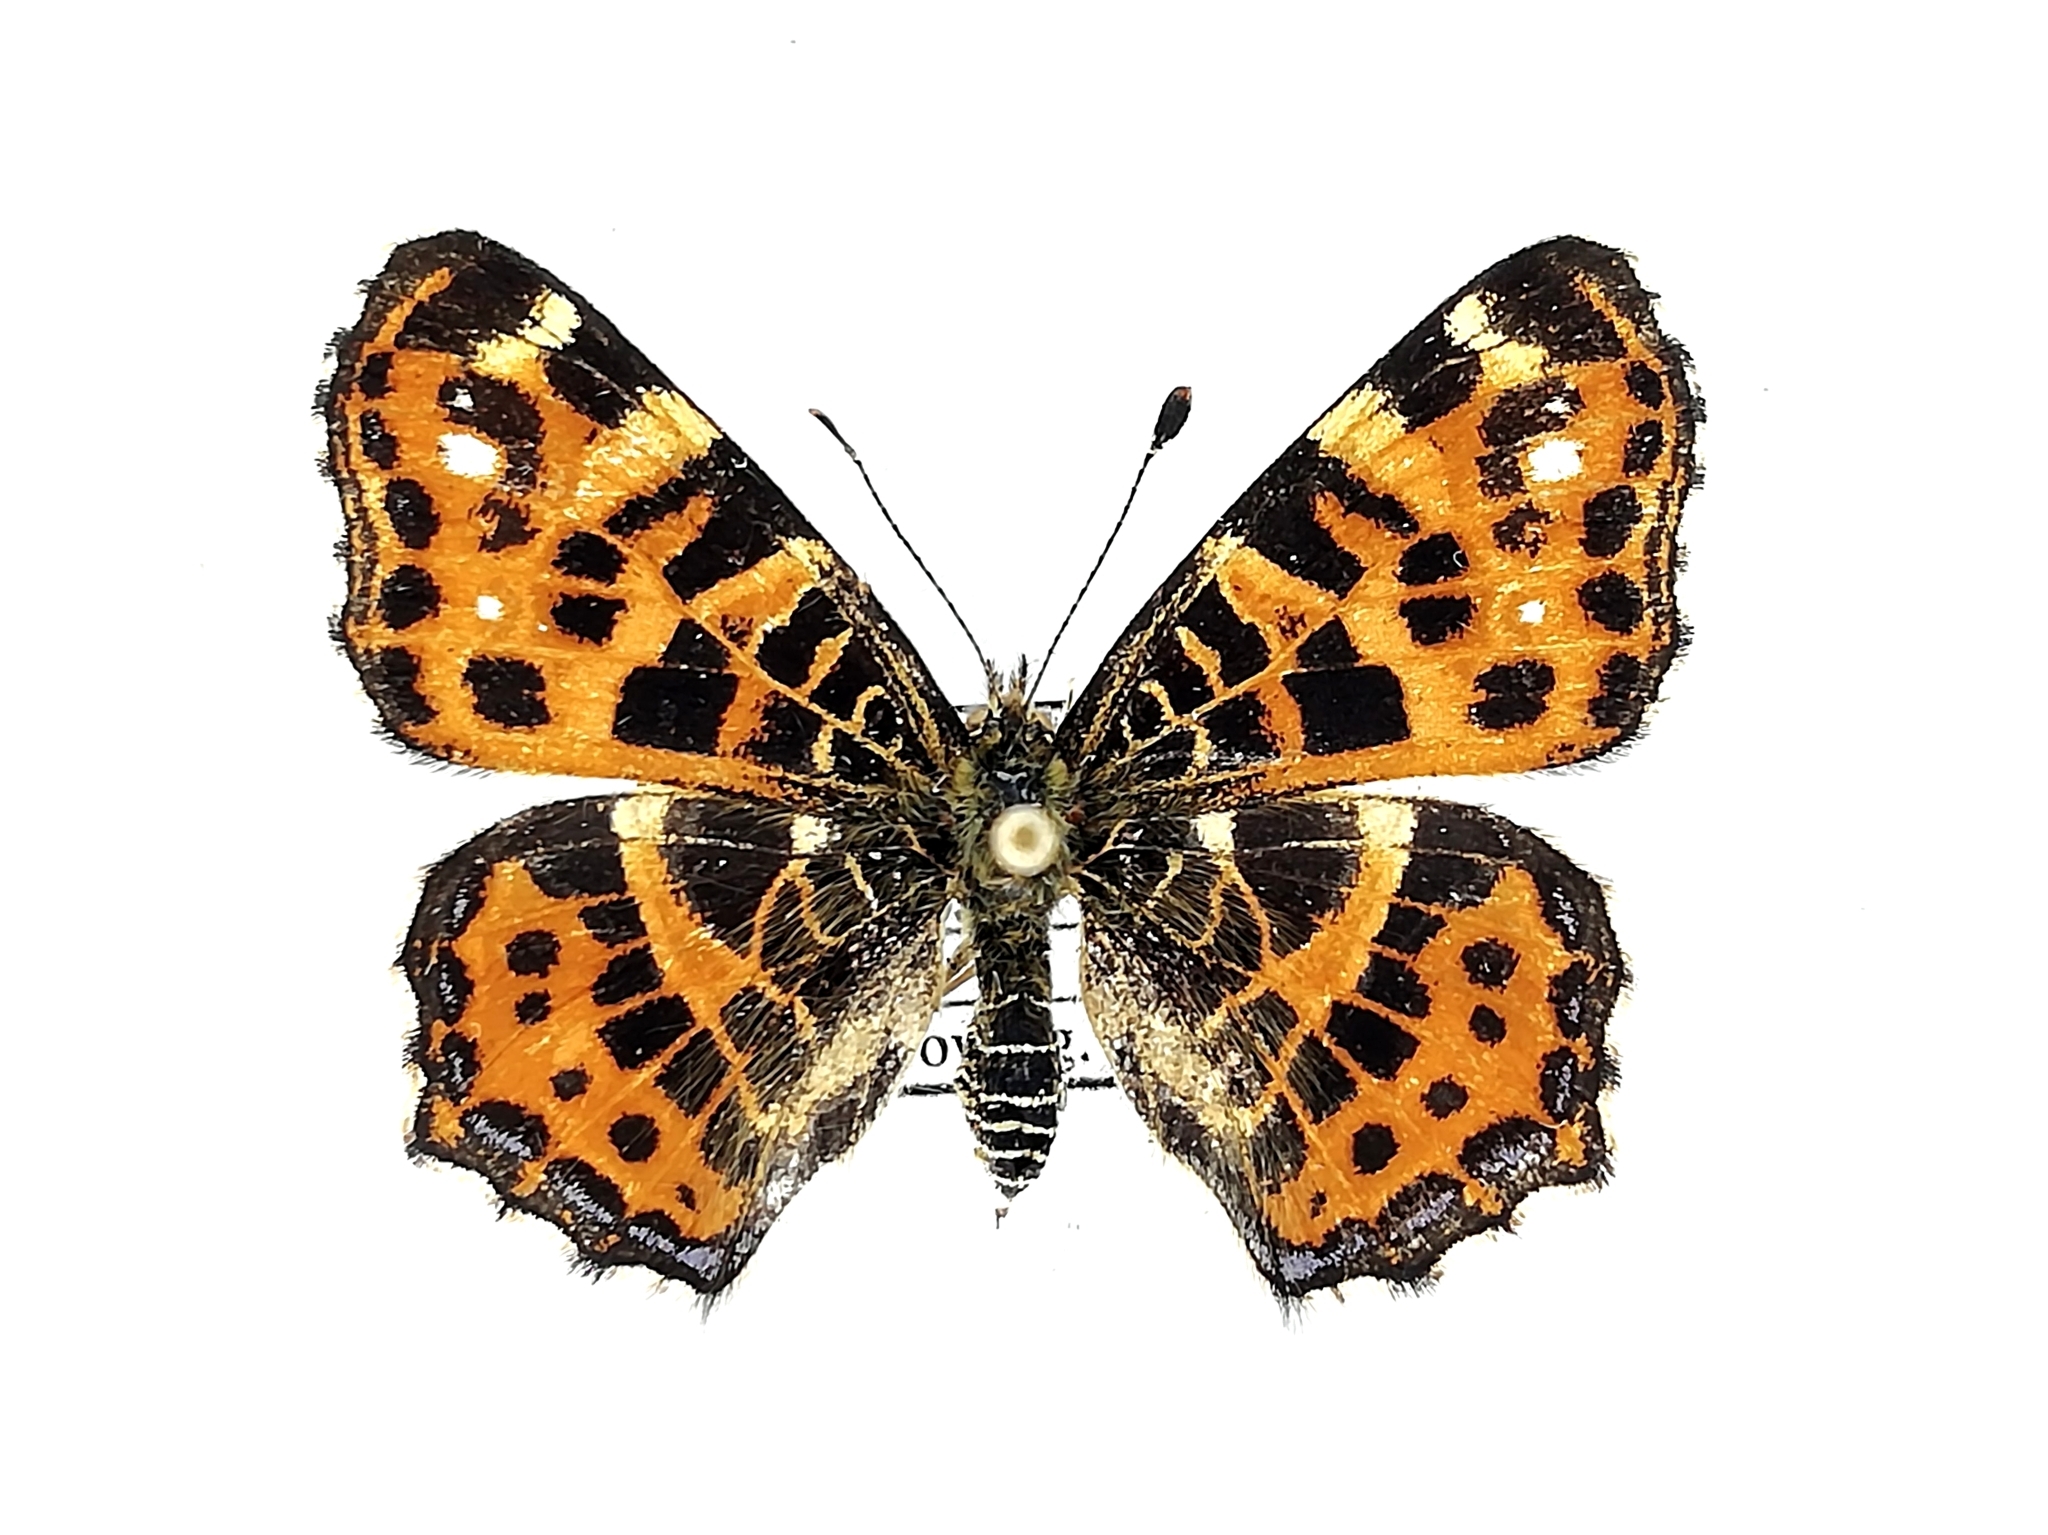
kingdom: Animalia
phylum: Arthropoda
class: Insecta
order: Lepidoptera
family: Nymphalidae
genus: Araschnia
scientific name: Araschnia levana
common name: Map butterfly
